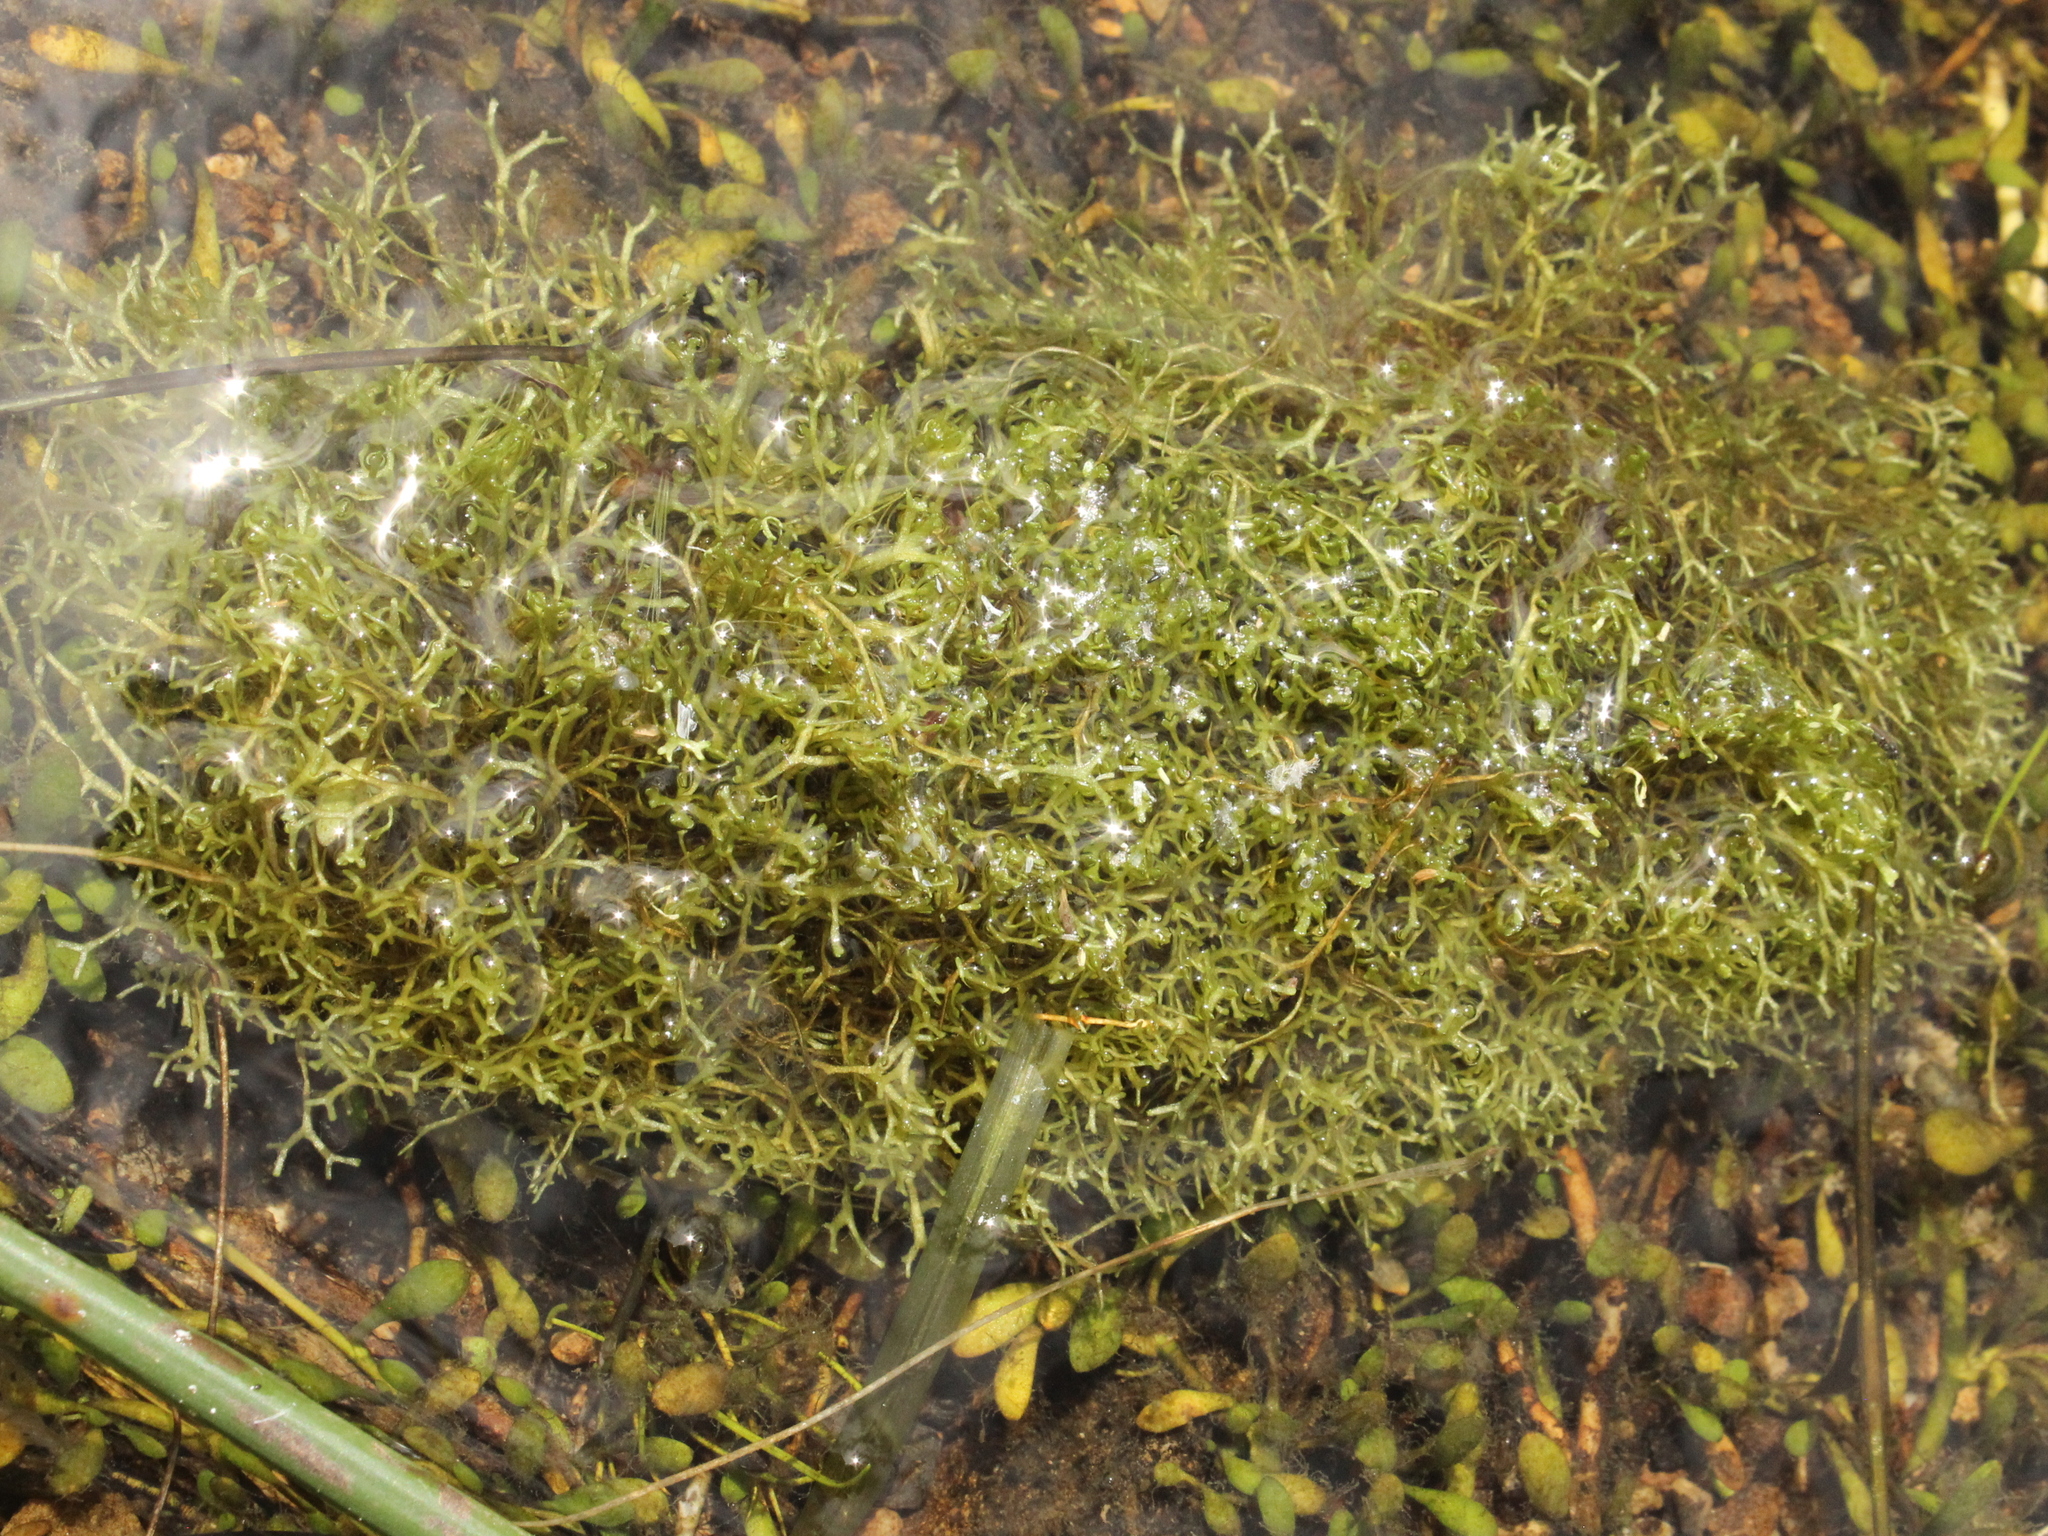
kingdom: Plantae
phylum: Marchantiophyta
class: Marchantiopsida
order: Marchantiales
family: Ricciaceae
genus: Riccia
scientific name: Riccia fluitans
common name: Floating crystalwort
